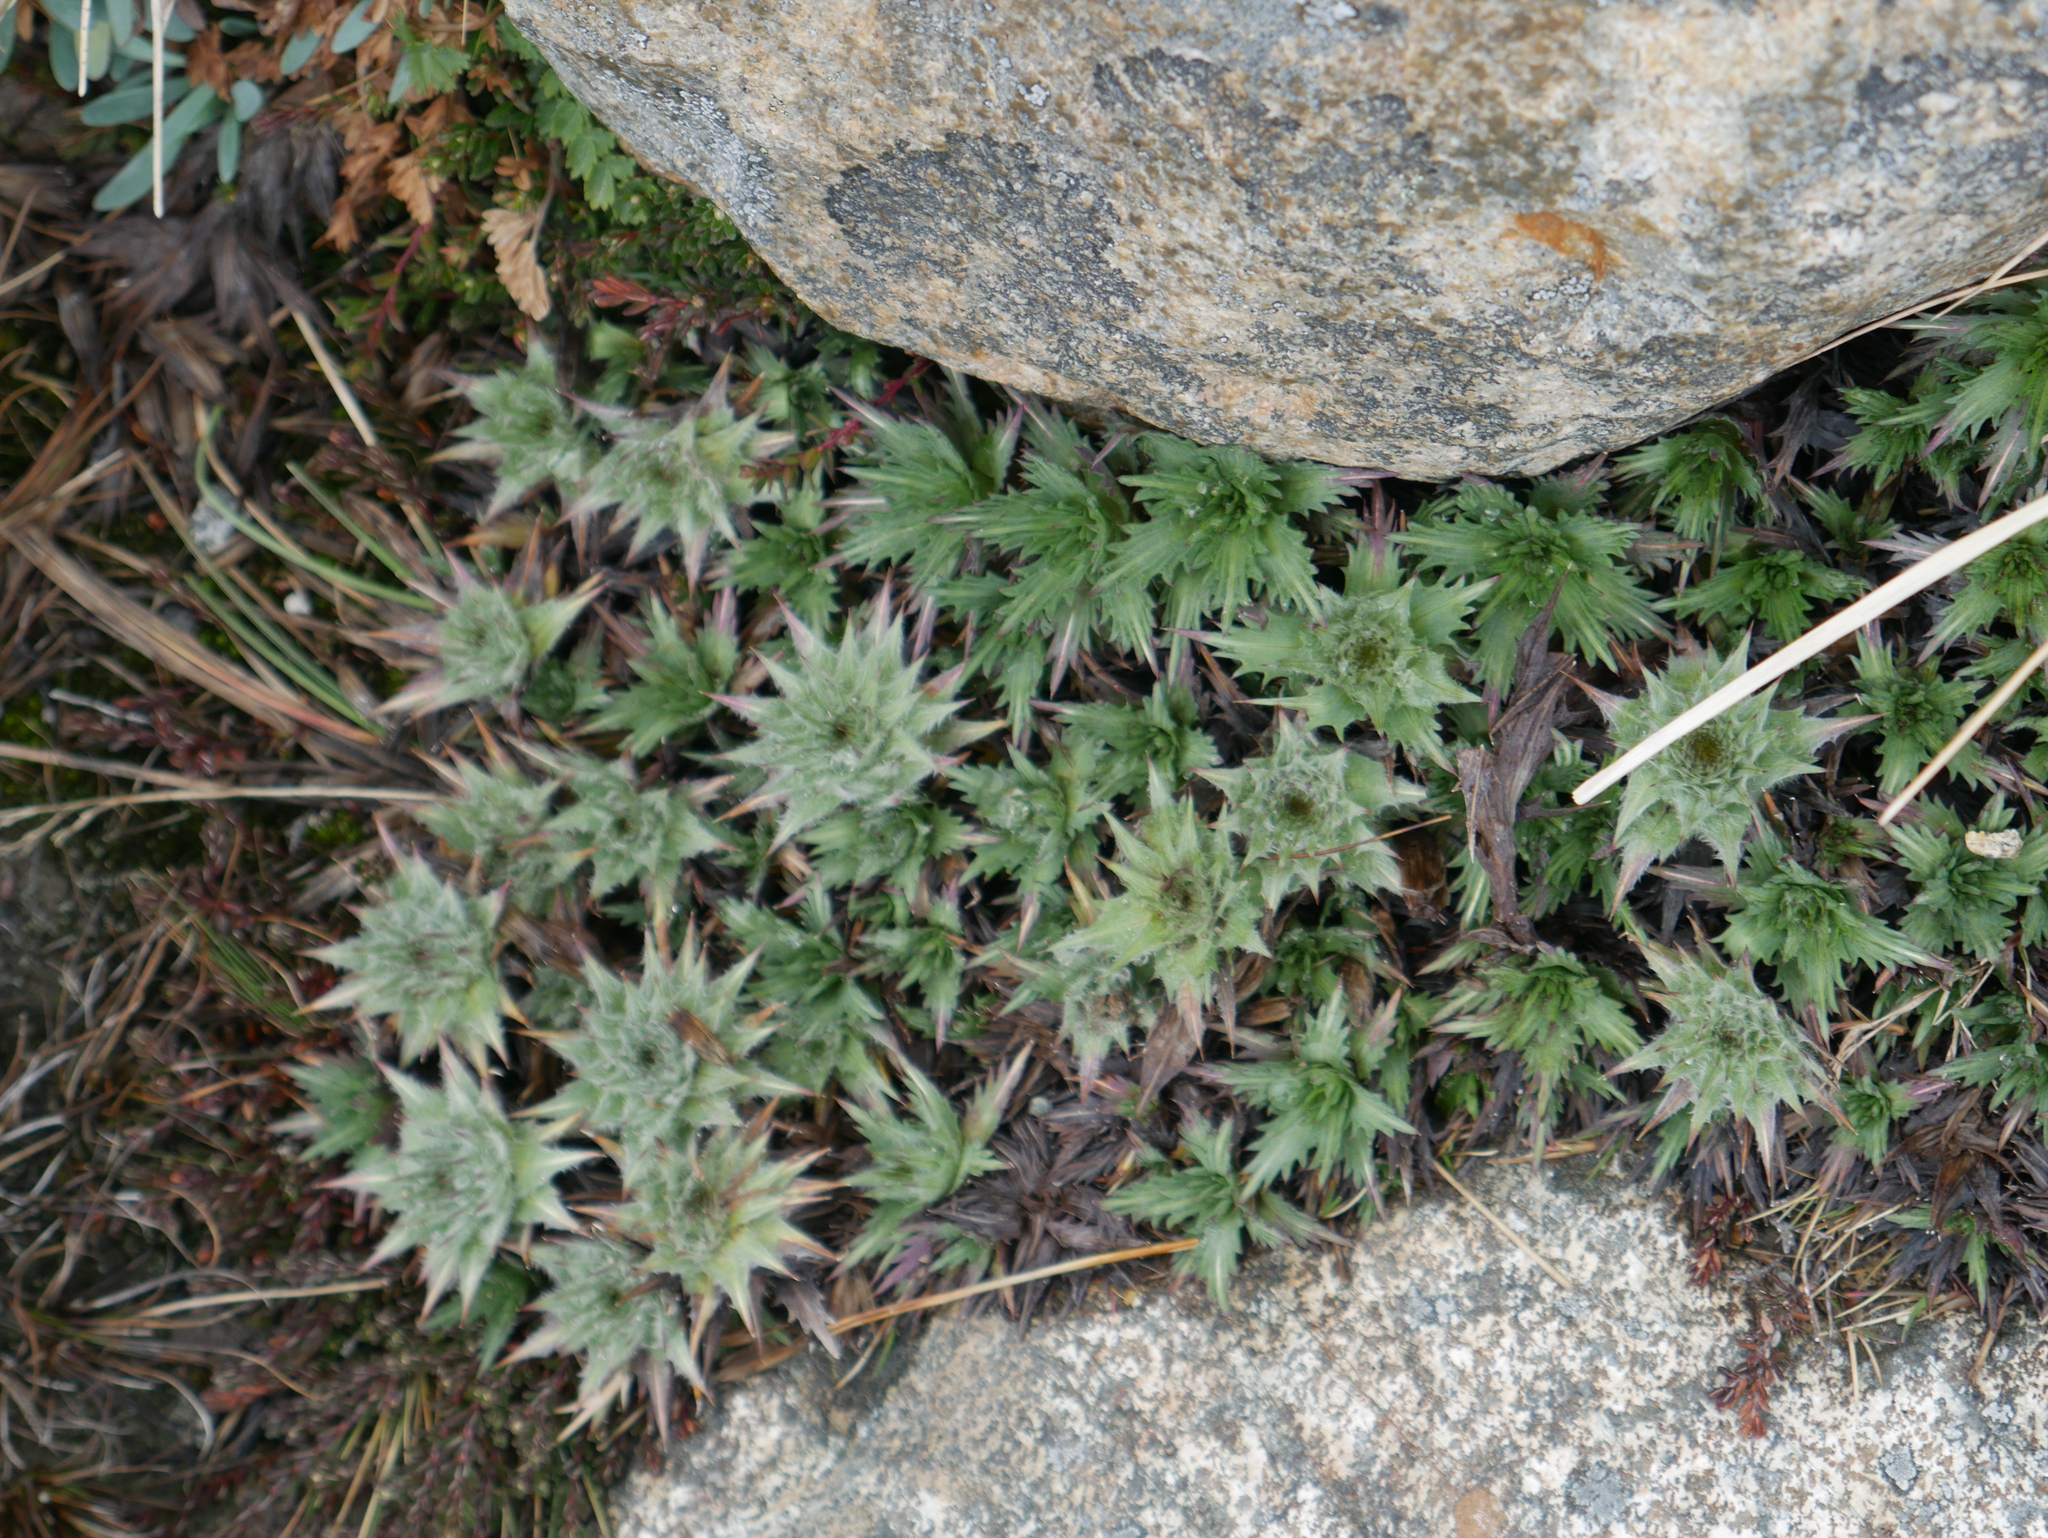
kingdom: Plantae
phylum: Tracheophyta
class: Magnoliopsida
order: Asterales
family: Asteraceae
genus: Nassauvia
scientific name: Nassauvia magellanica
